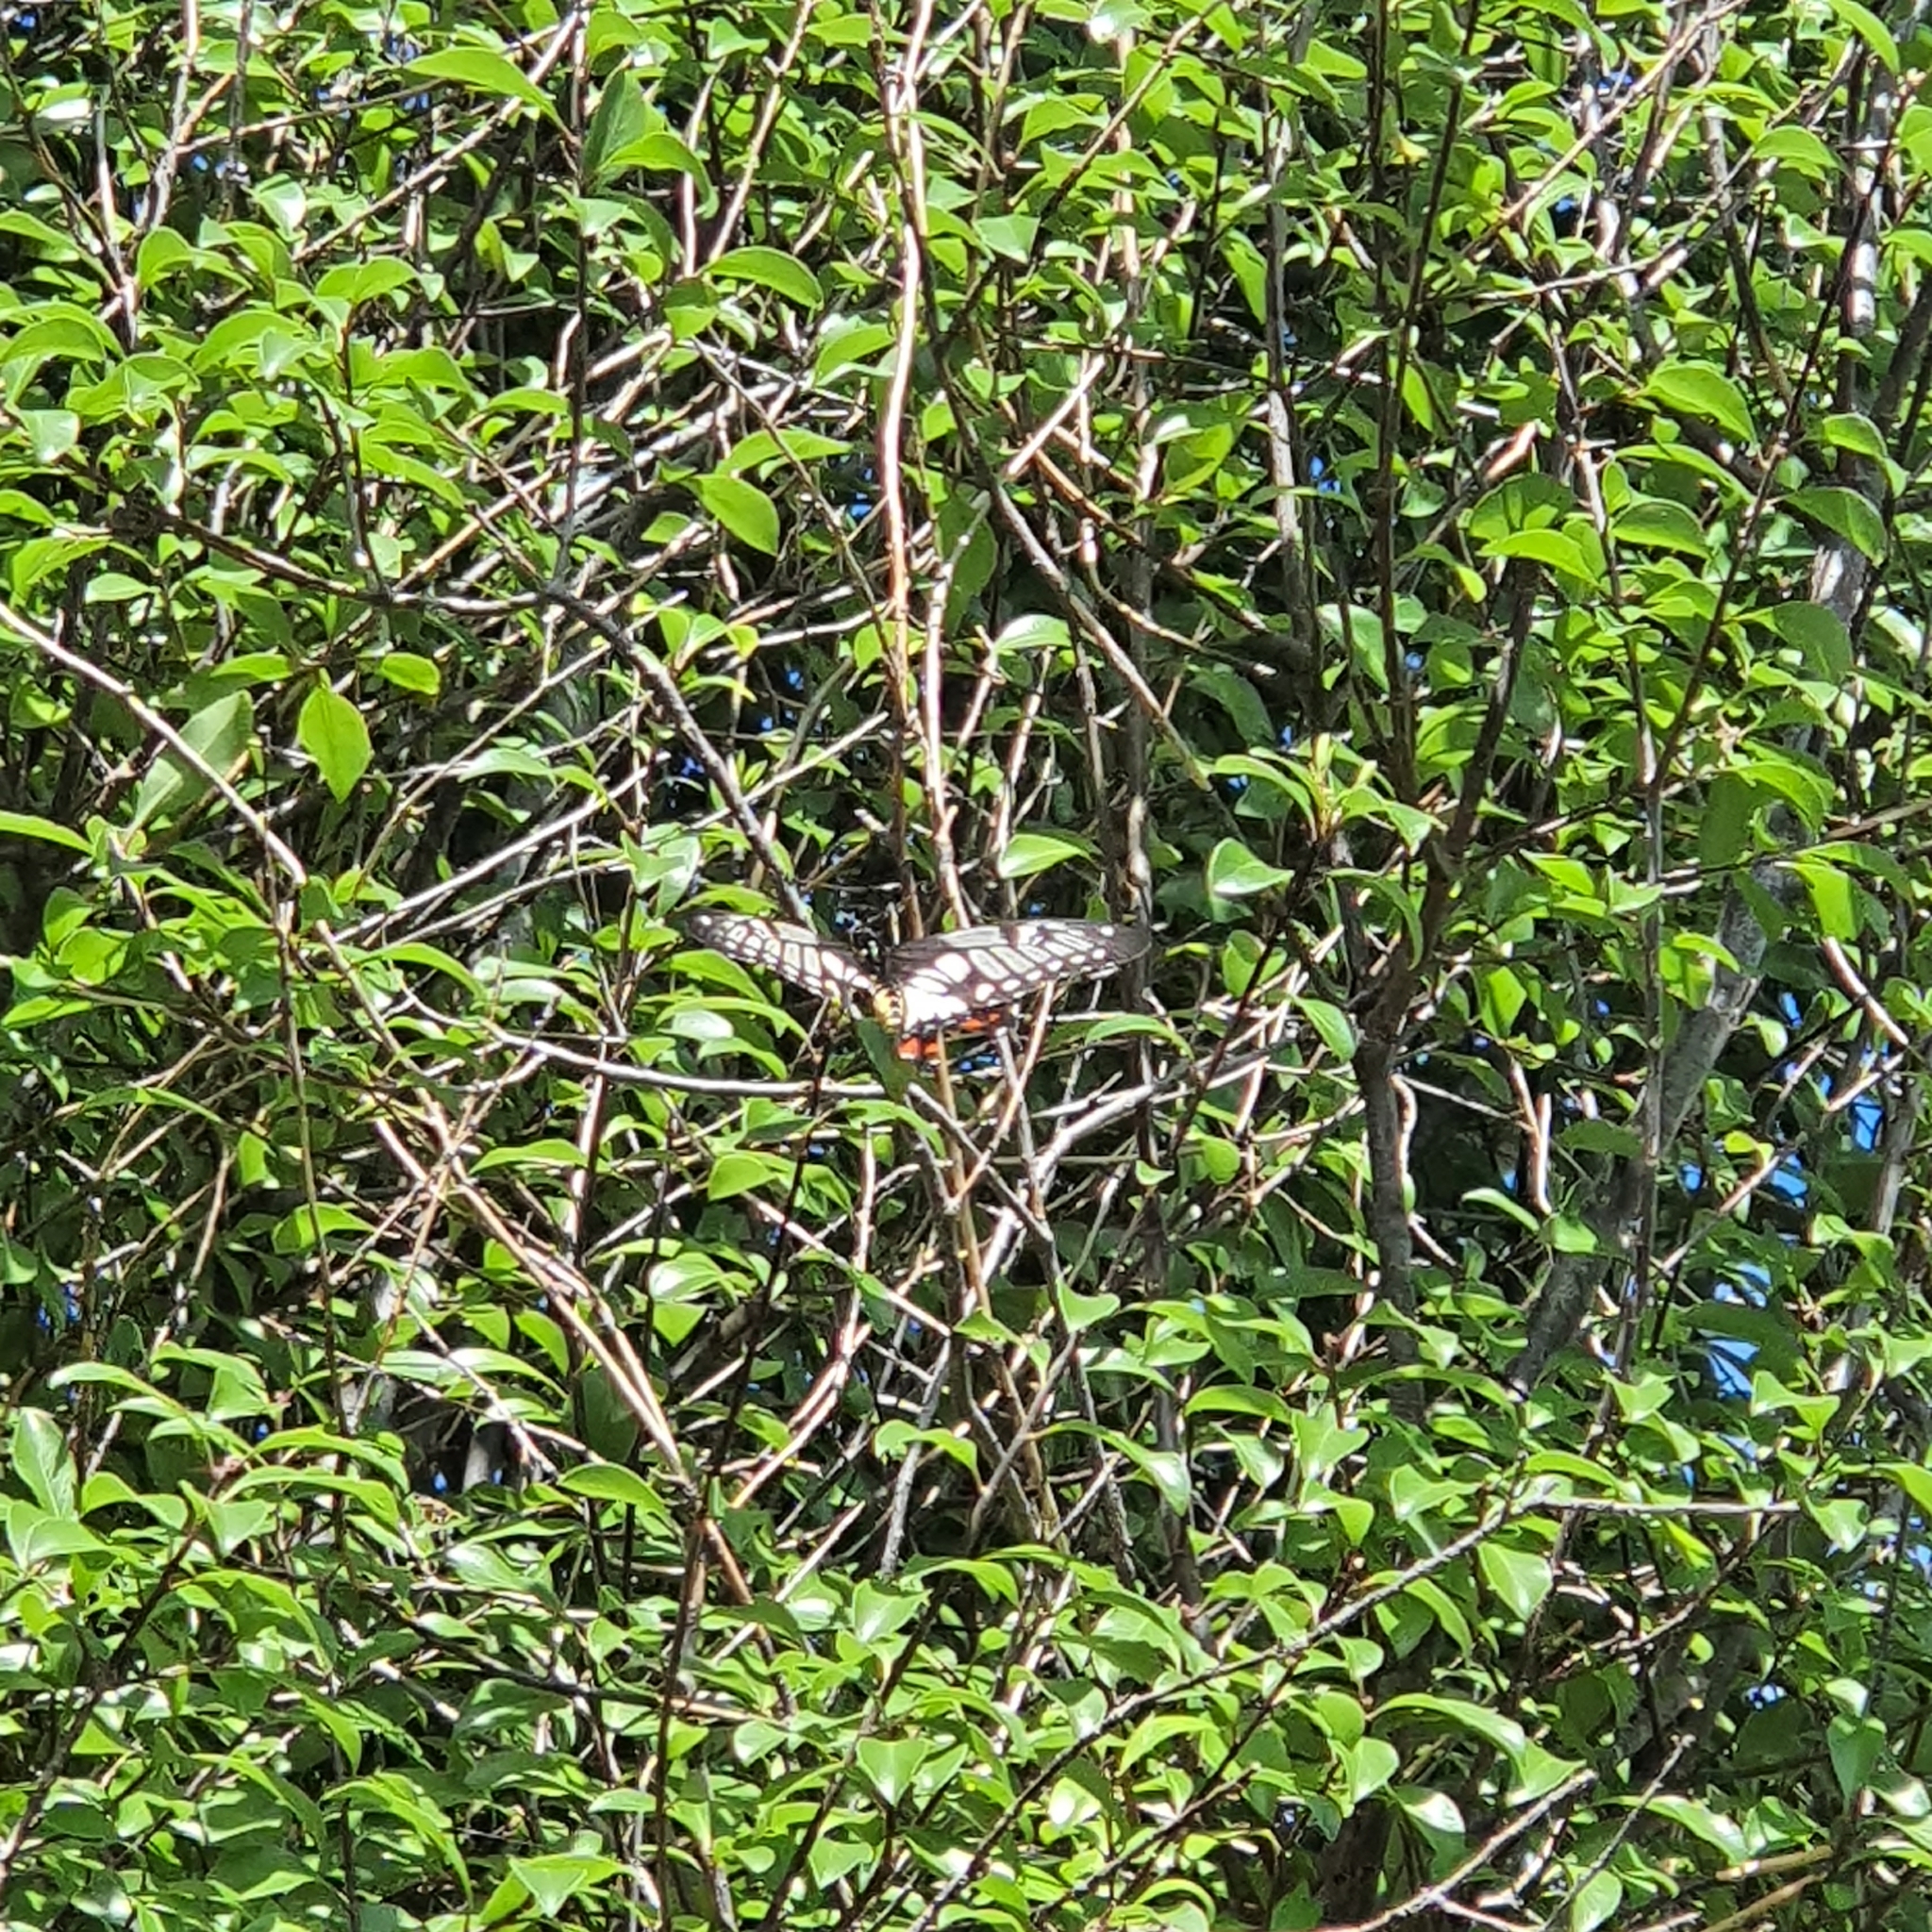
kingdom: Animalia
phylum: Arthropoda
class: Insecta
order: Lepidoptera
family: Papilionidae
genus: Papilio
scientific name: Papilio anactus
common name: Dingy swallowtail
